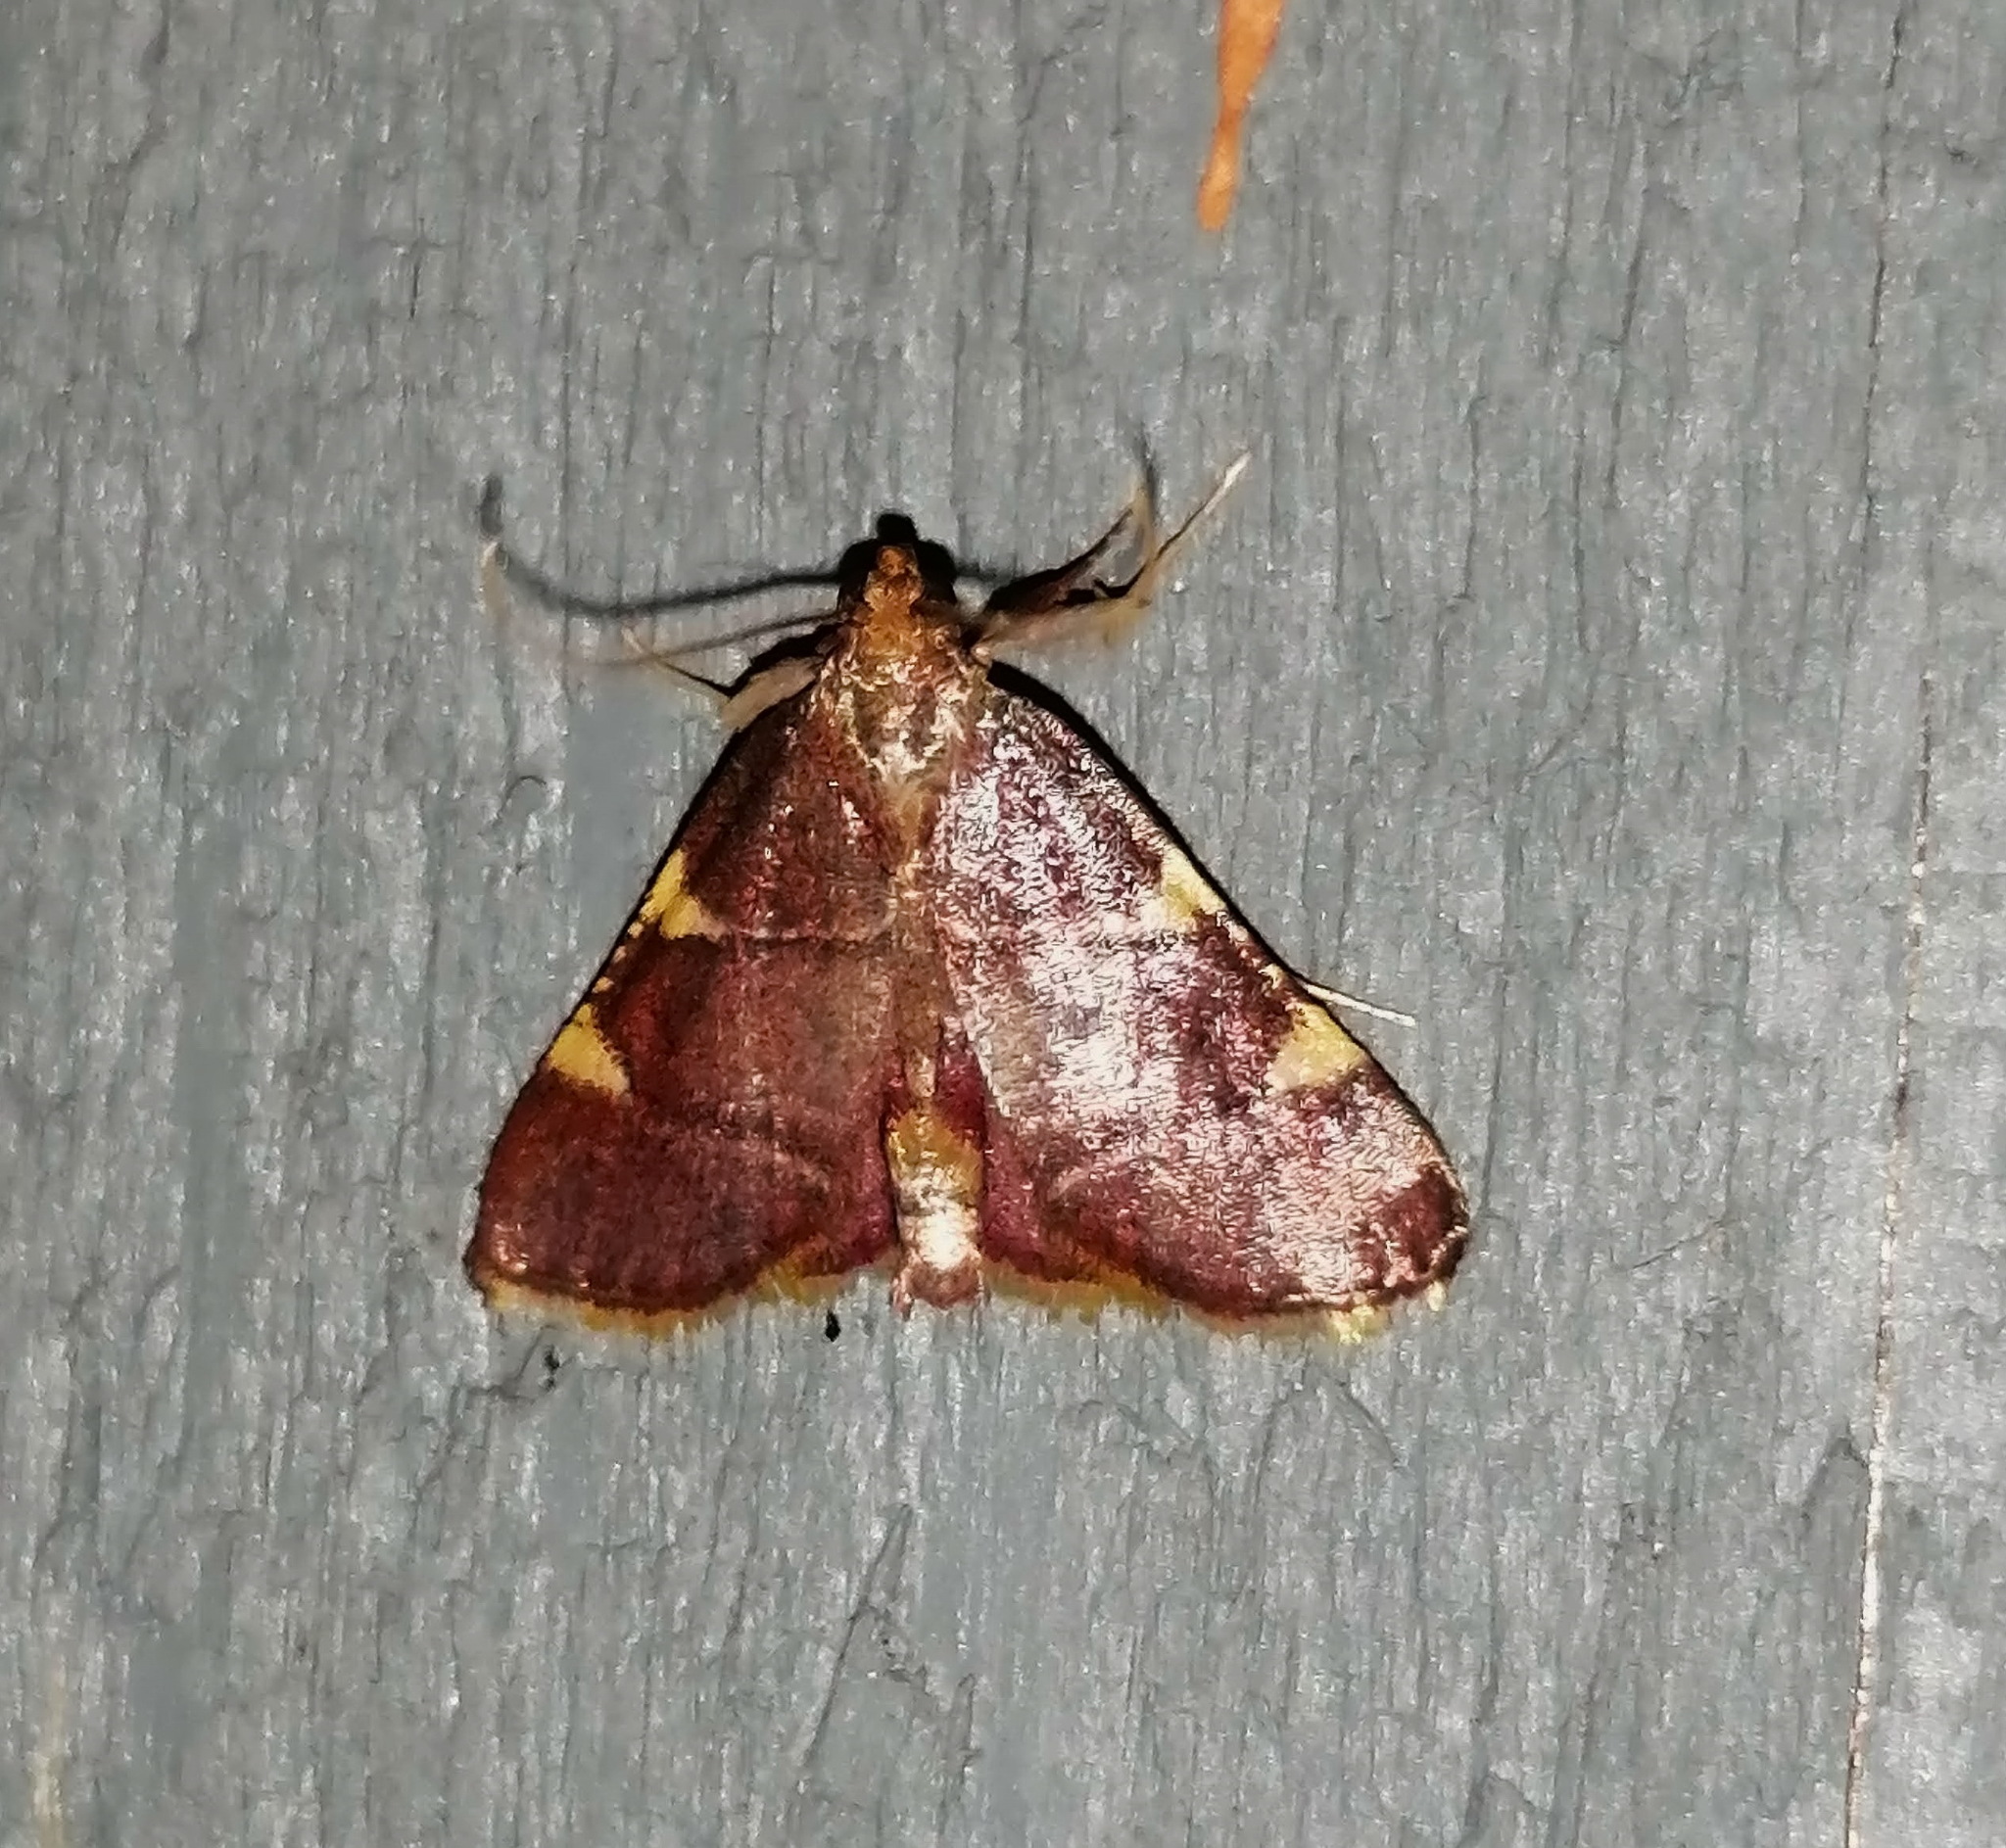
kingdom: Animalia
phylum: Arthropoda
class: Insecta
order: Lepidoptera
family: Pyralidae
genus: Hypsopygia
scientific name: Hypsopygia olinalis
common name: Yellow-fringed dolichomia moth
